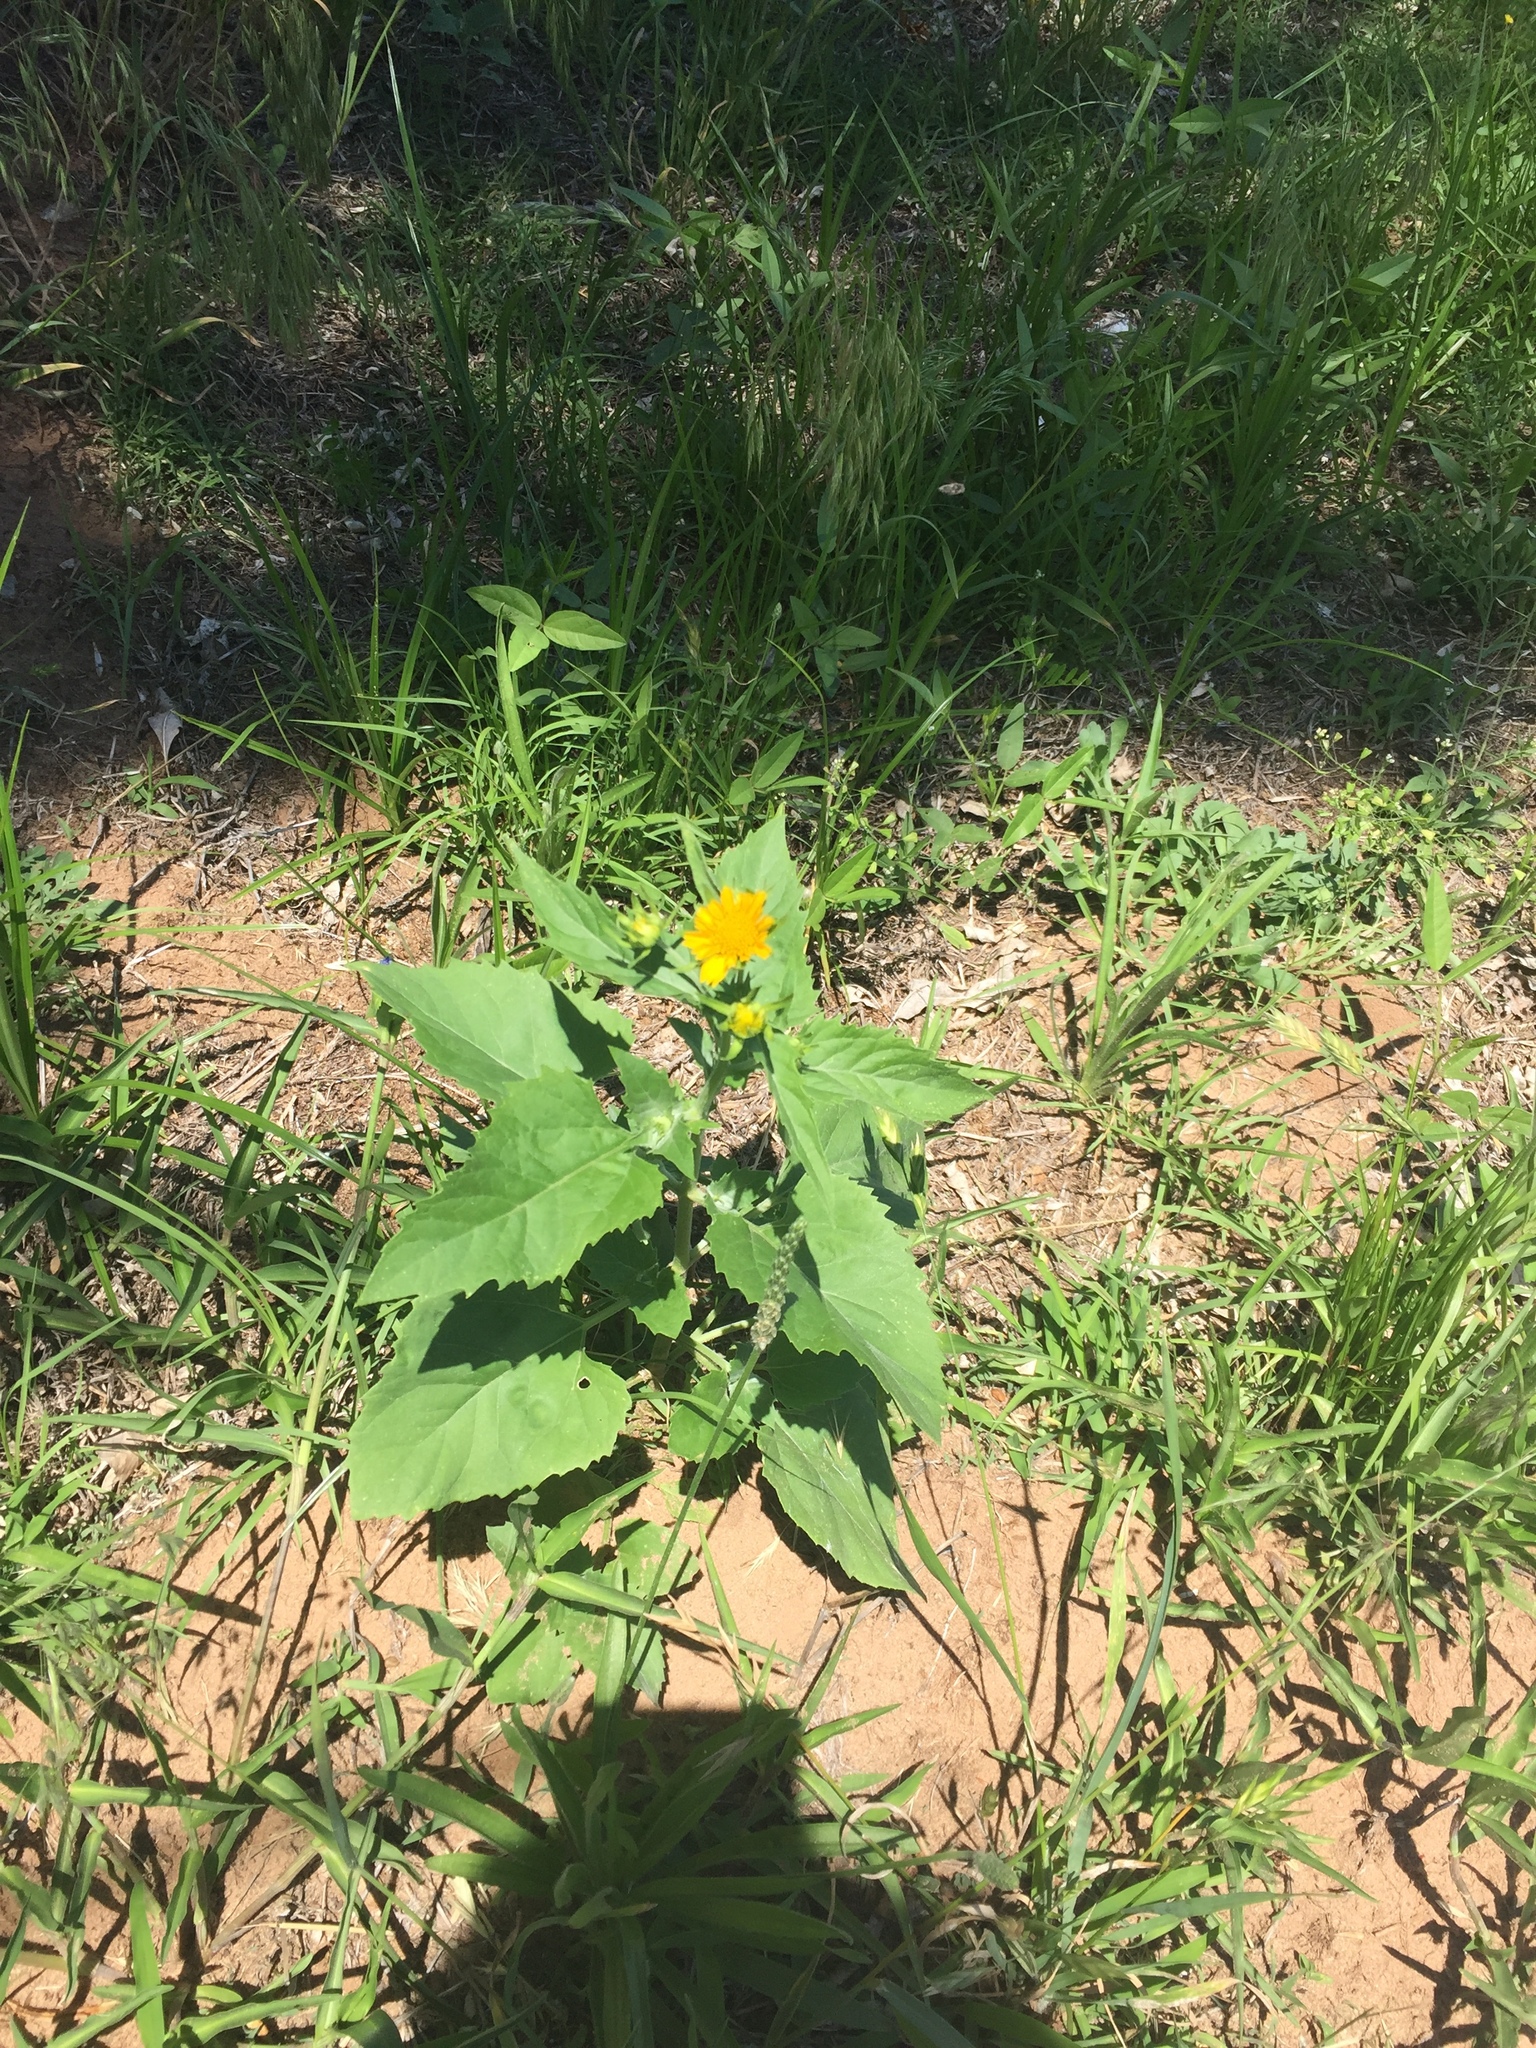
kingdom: Plantae
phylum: Tracheophyta
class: Magnoliopsida
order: Asterales
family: Asteraceae
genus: Verbesina
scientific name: Verbesina encelioides
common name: Golden crownbeard
